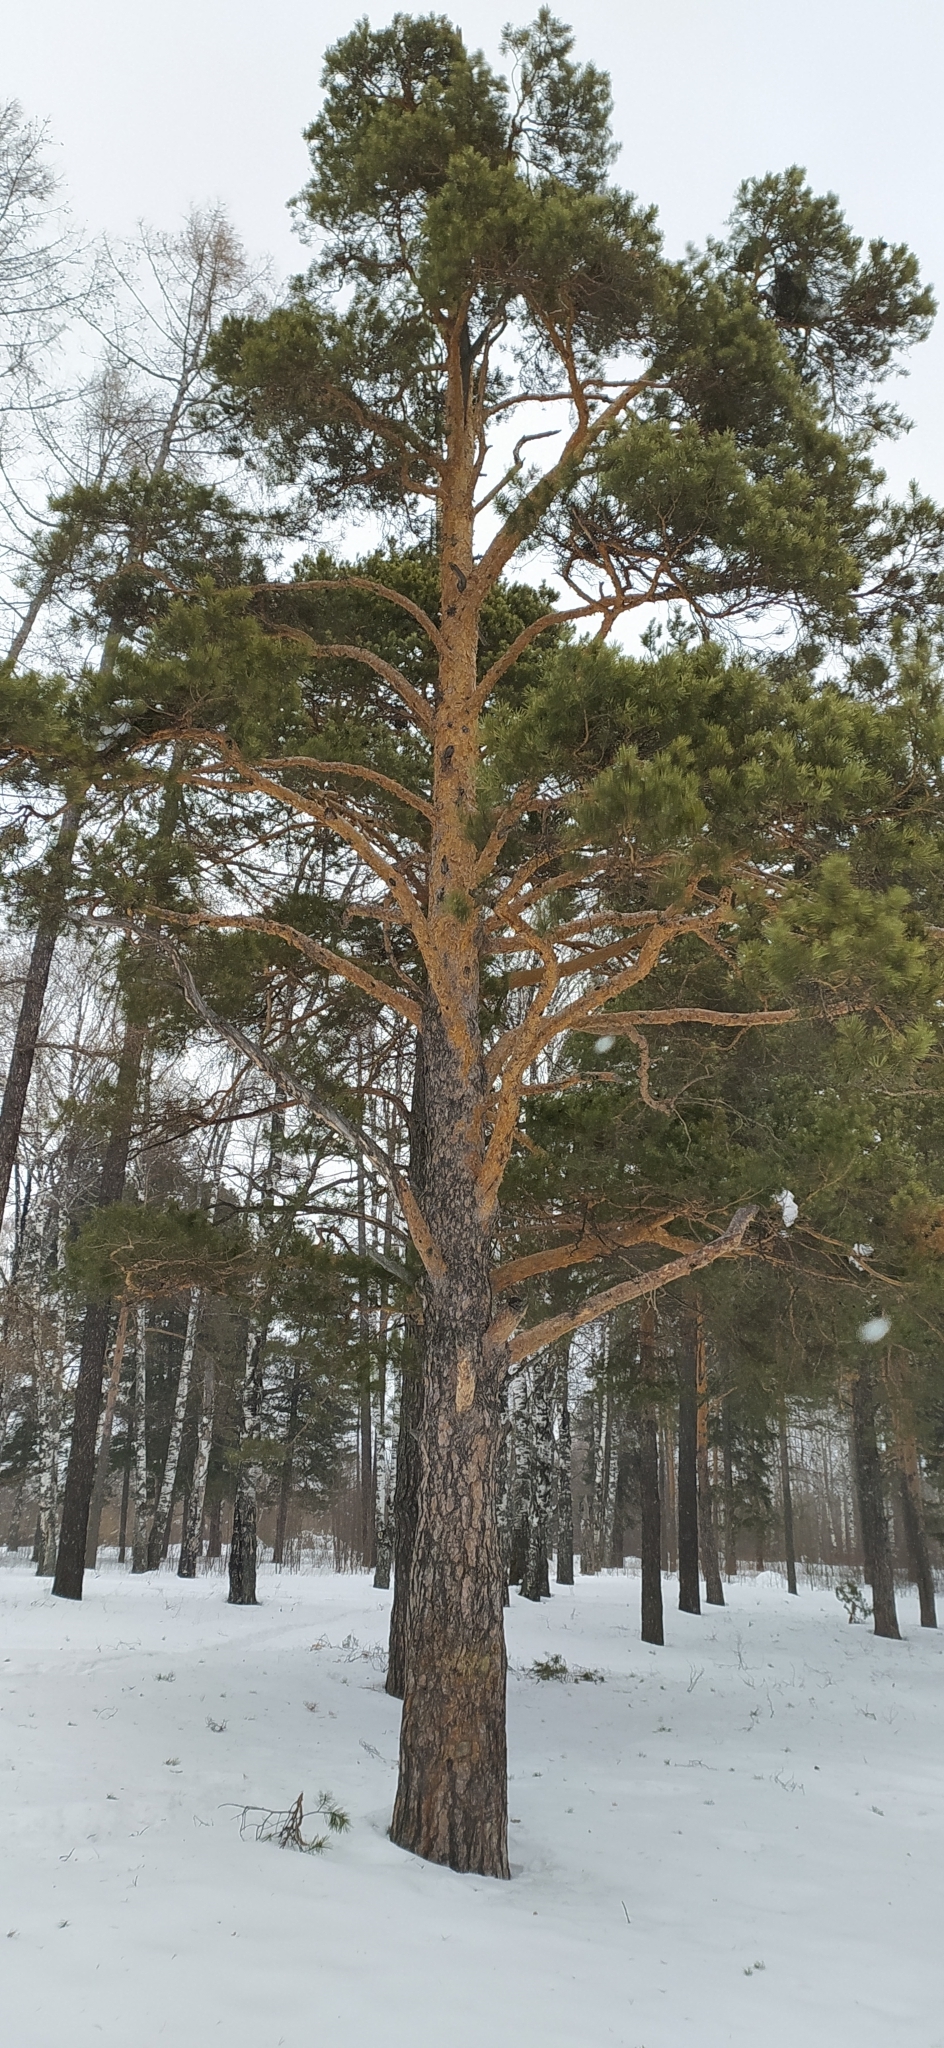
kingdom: Plantae
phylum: Tracheophyta
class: Pinopsida
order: Pinales
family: Pinaceae
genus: Pinus
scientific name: Pinus sylvestris
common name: Scots pine
